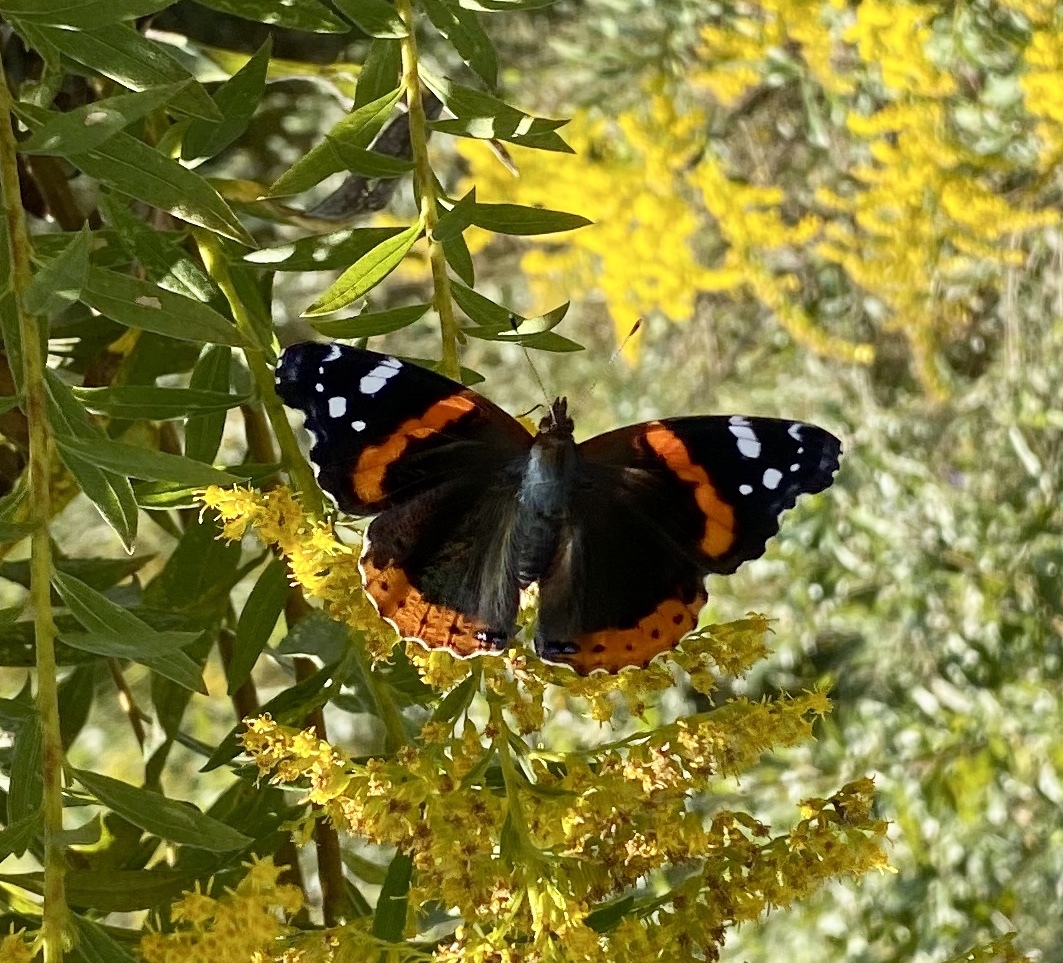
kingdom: Animalia
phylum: Arthropoda
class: Insecta
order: Lepidoptera
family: Nymphalidae
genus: Vanessa
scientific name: Vanessa atalanta
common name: Red admiral
